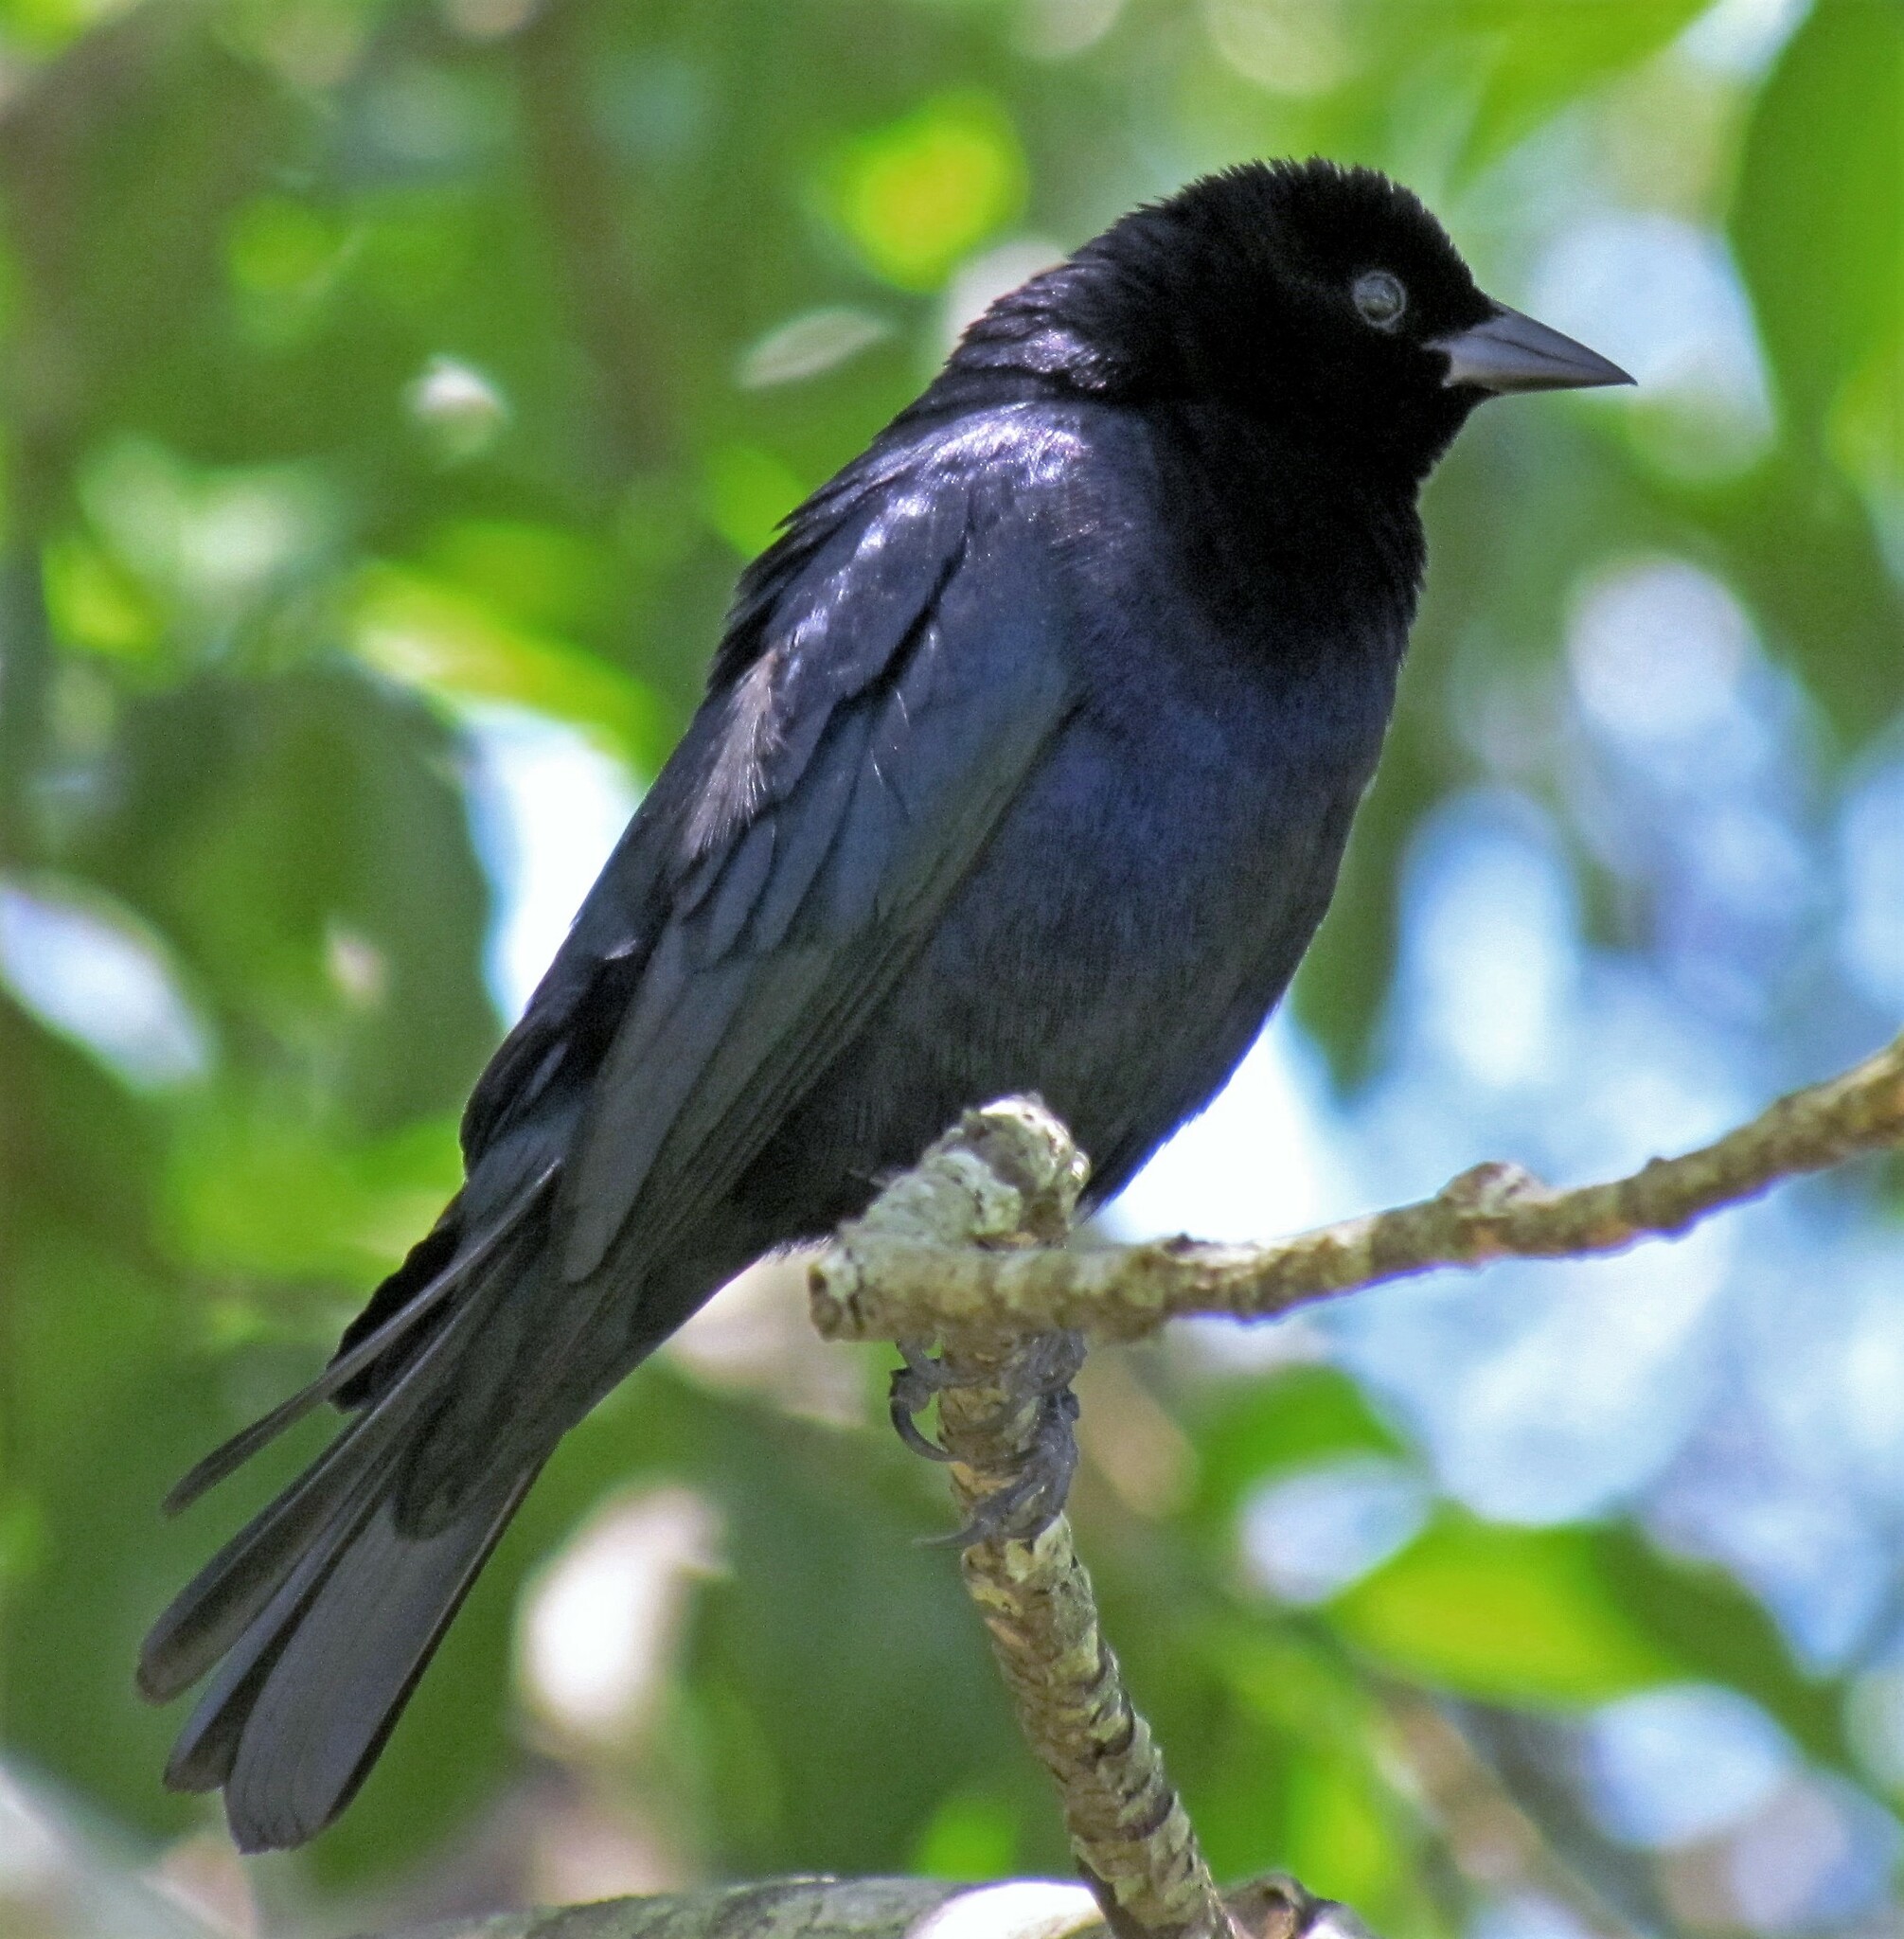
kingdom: Animalia
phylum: Chordata
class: Aves
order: Passeriformes
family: Icteridae
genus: Molothrus
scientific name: Molothrus bonariensis
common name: Shiny cowbird
